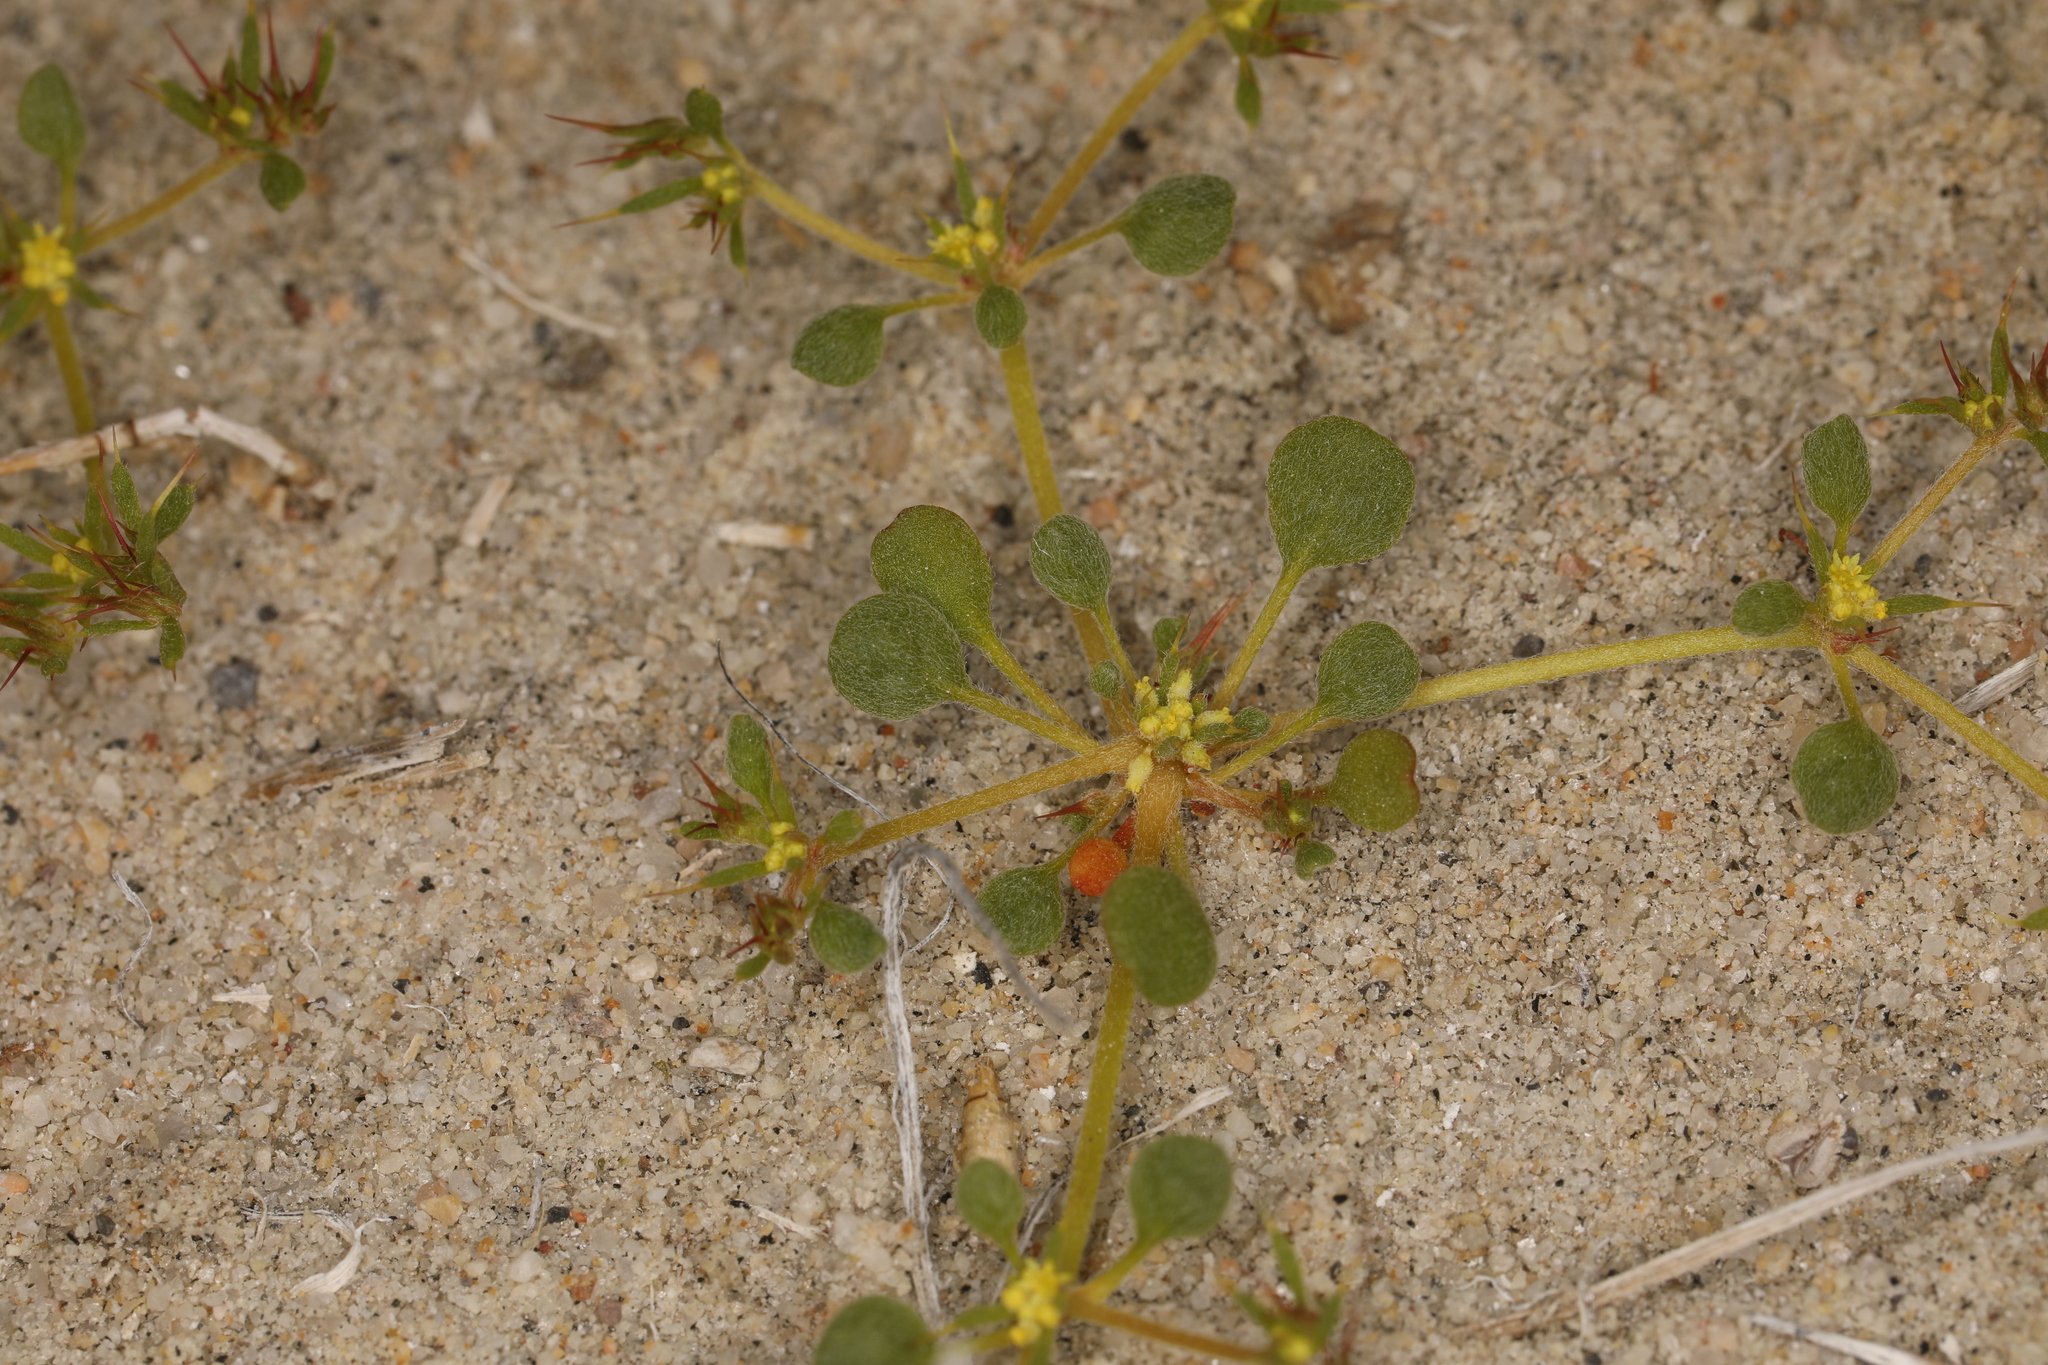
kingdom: Plantae
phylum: Tracheophyta
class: Magnoliopsida
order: Caryophyllales
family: Polygonaceae
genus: Goodmania
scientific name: Goodmania luteola
